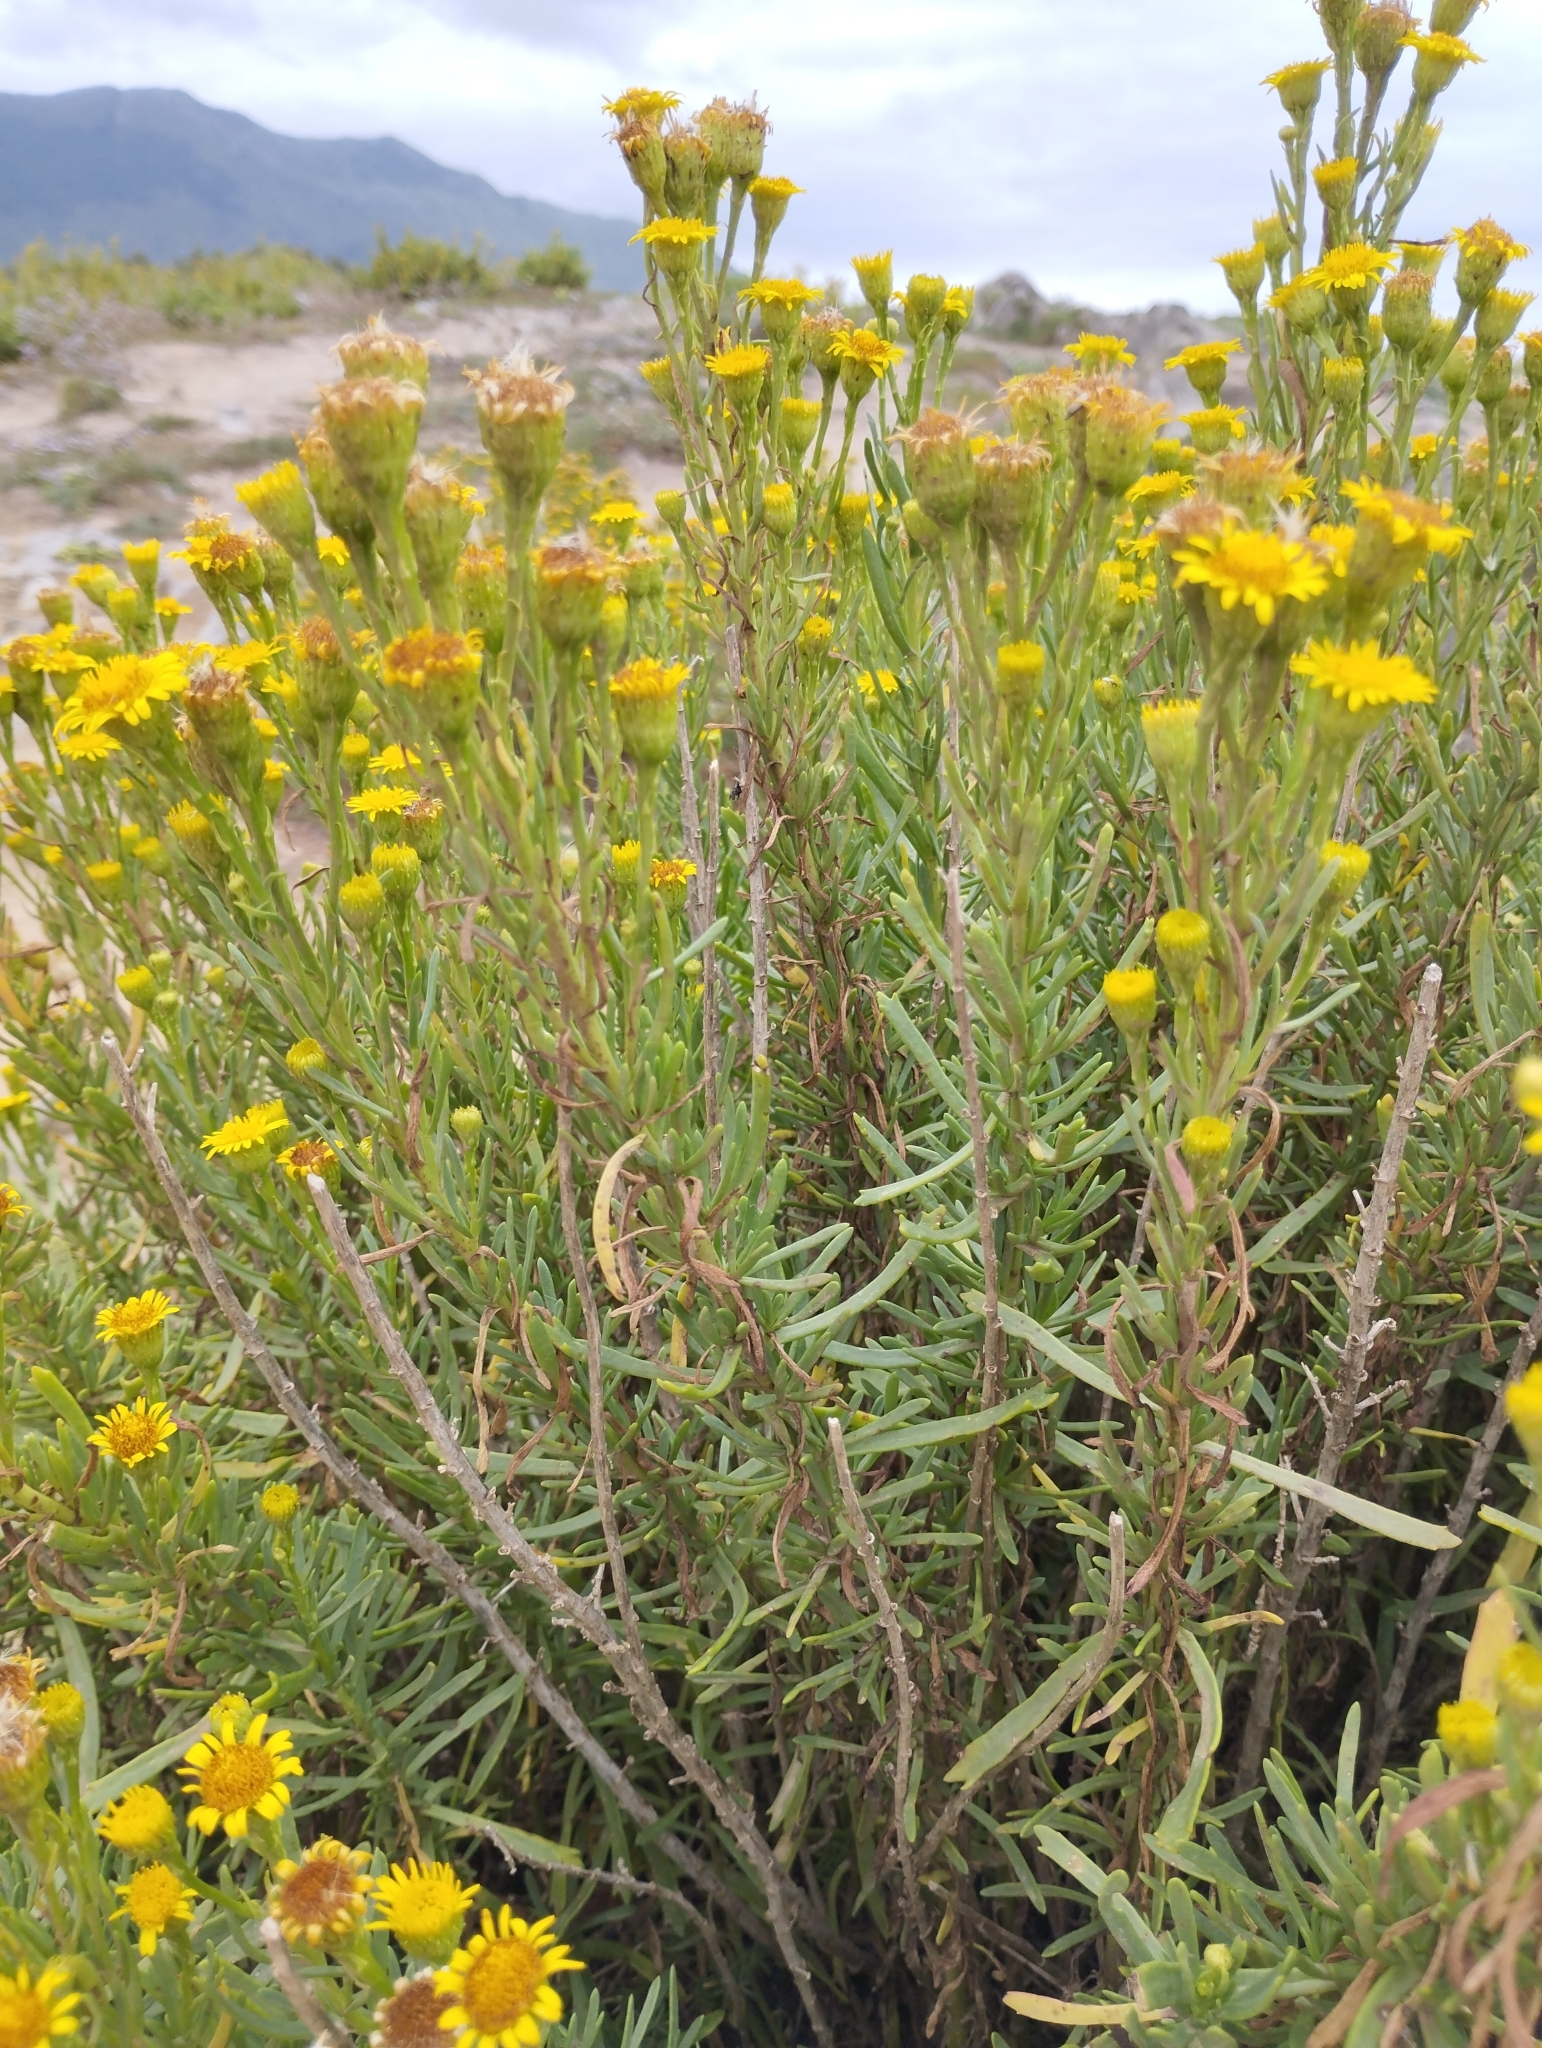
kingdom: Plantae
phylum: Tracheophyta
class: Magnoliopsida
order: Asterales
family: Asteraceae
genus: Limbarda
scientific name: Limbarda crithmoides
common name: Golden samphire
